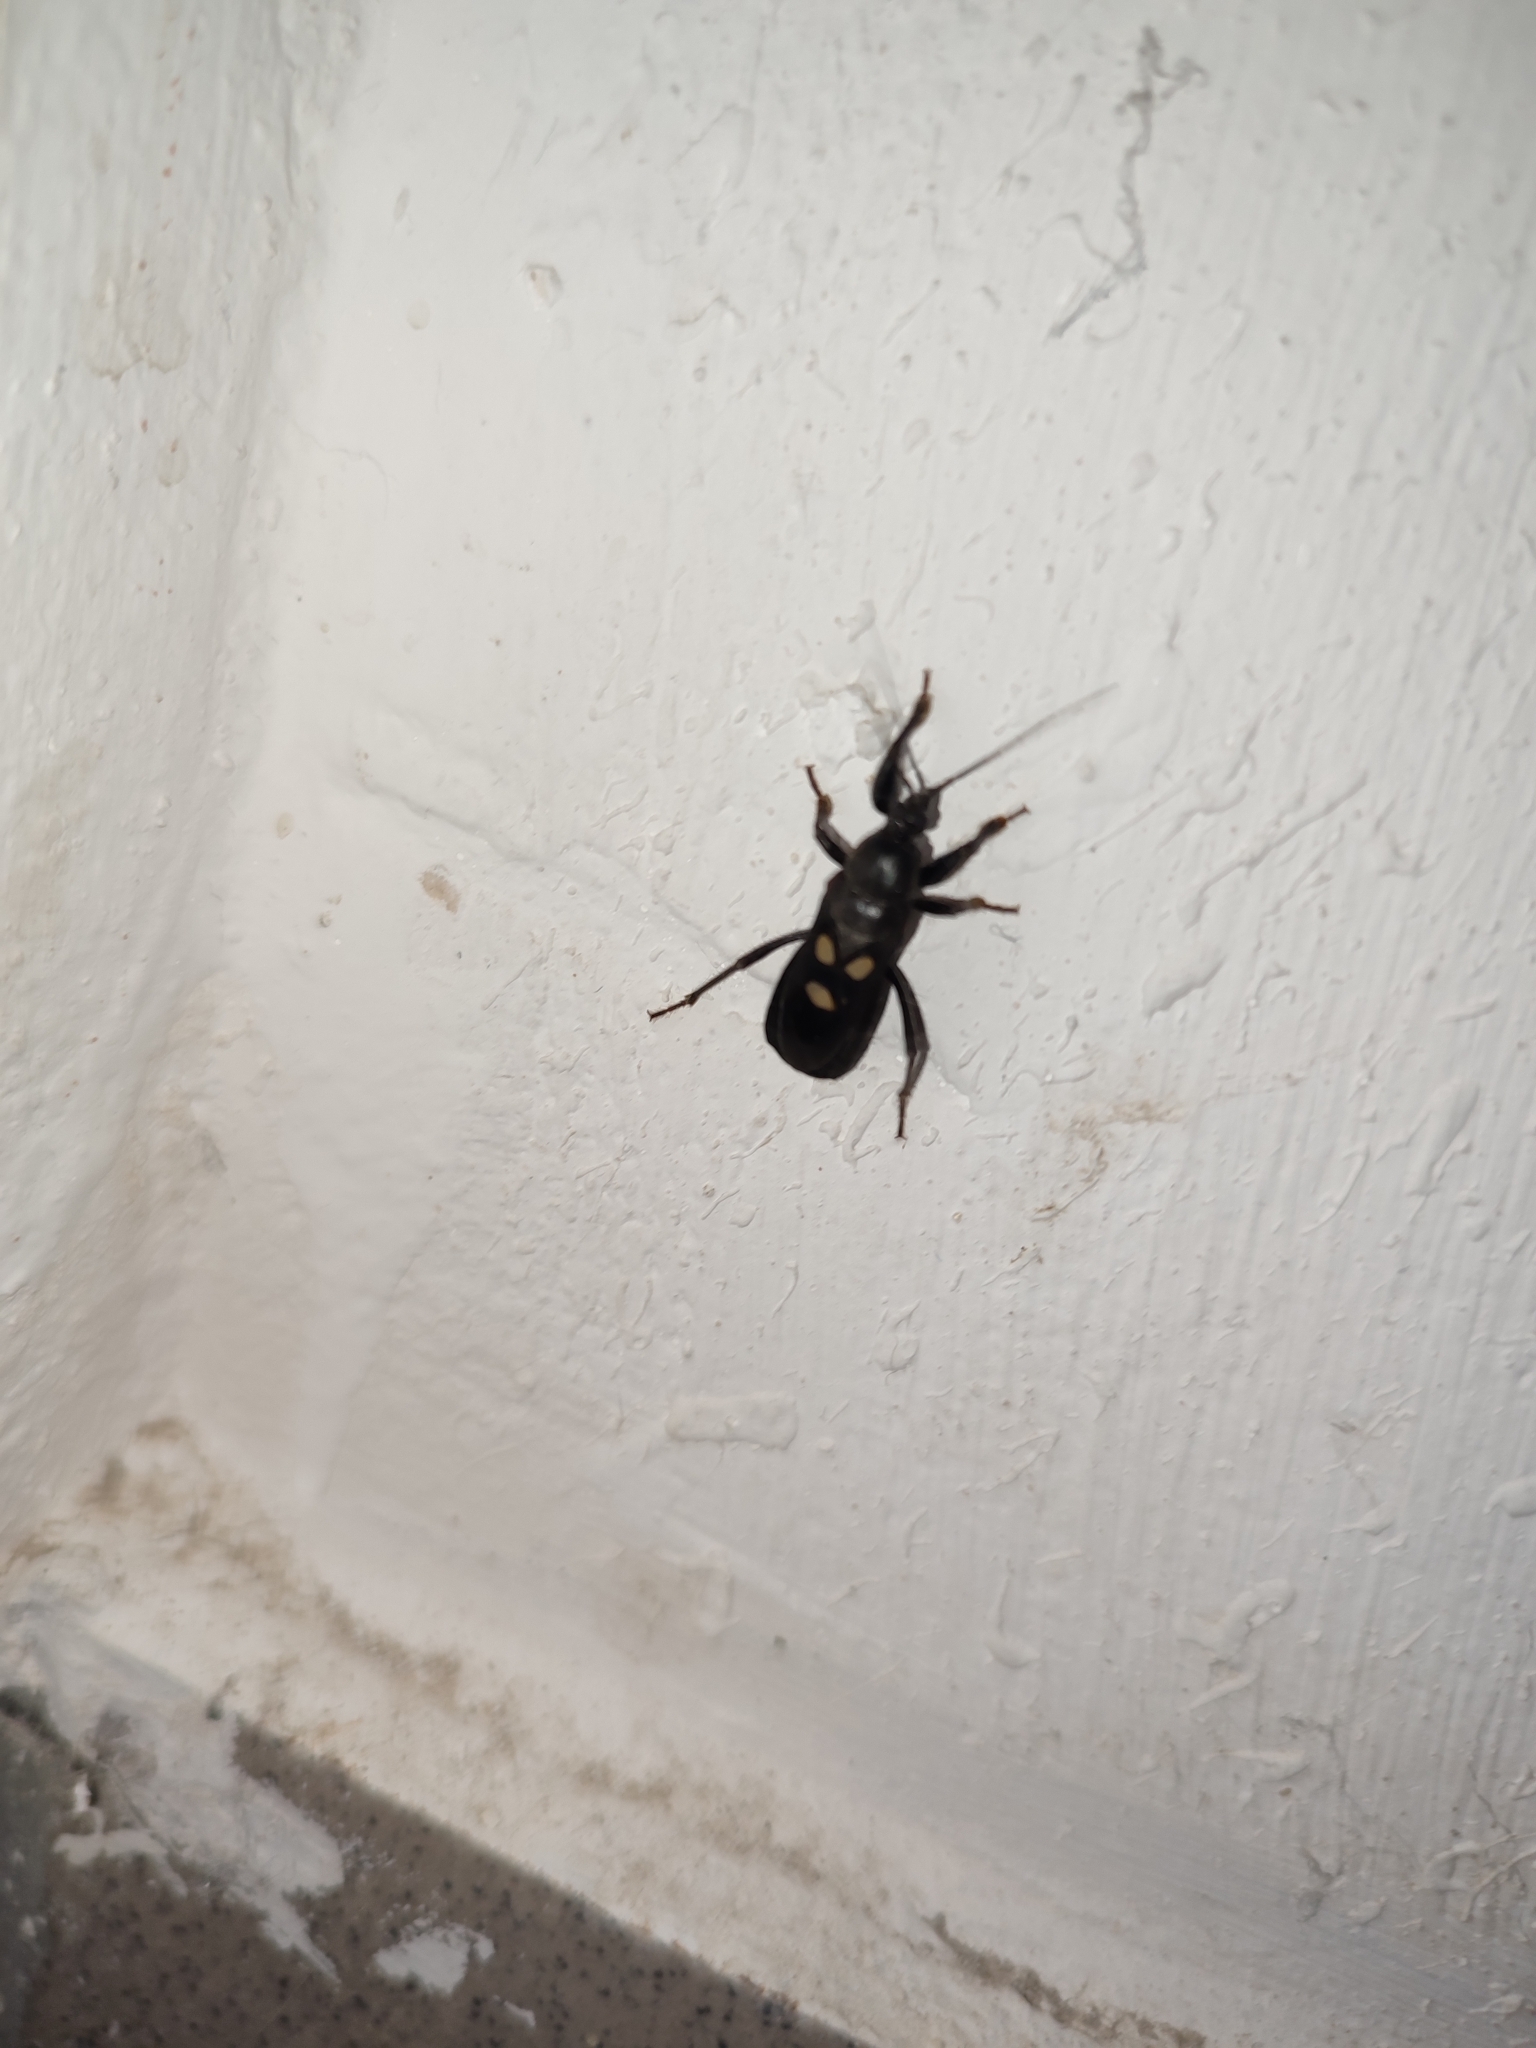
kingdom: Animalia
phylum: Arthropoda
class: Insecta
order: Hemiptera
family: Reduviidae
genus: Ectomocoris
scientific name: Ectomocoris caucasicus
